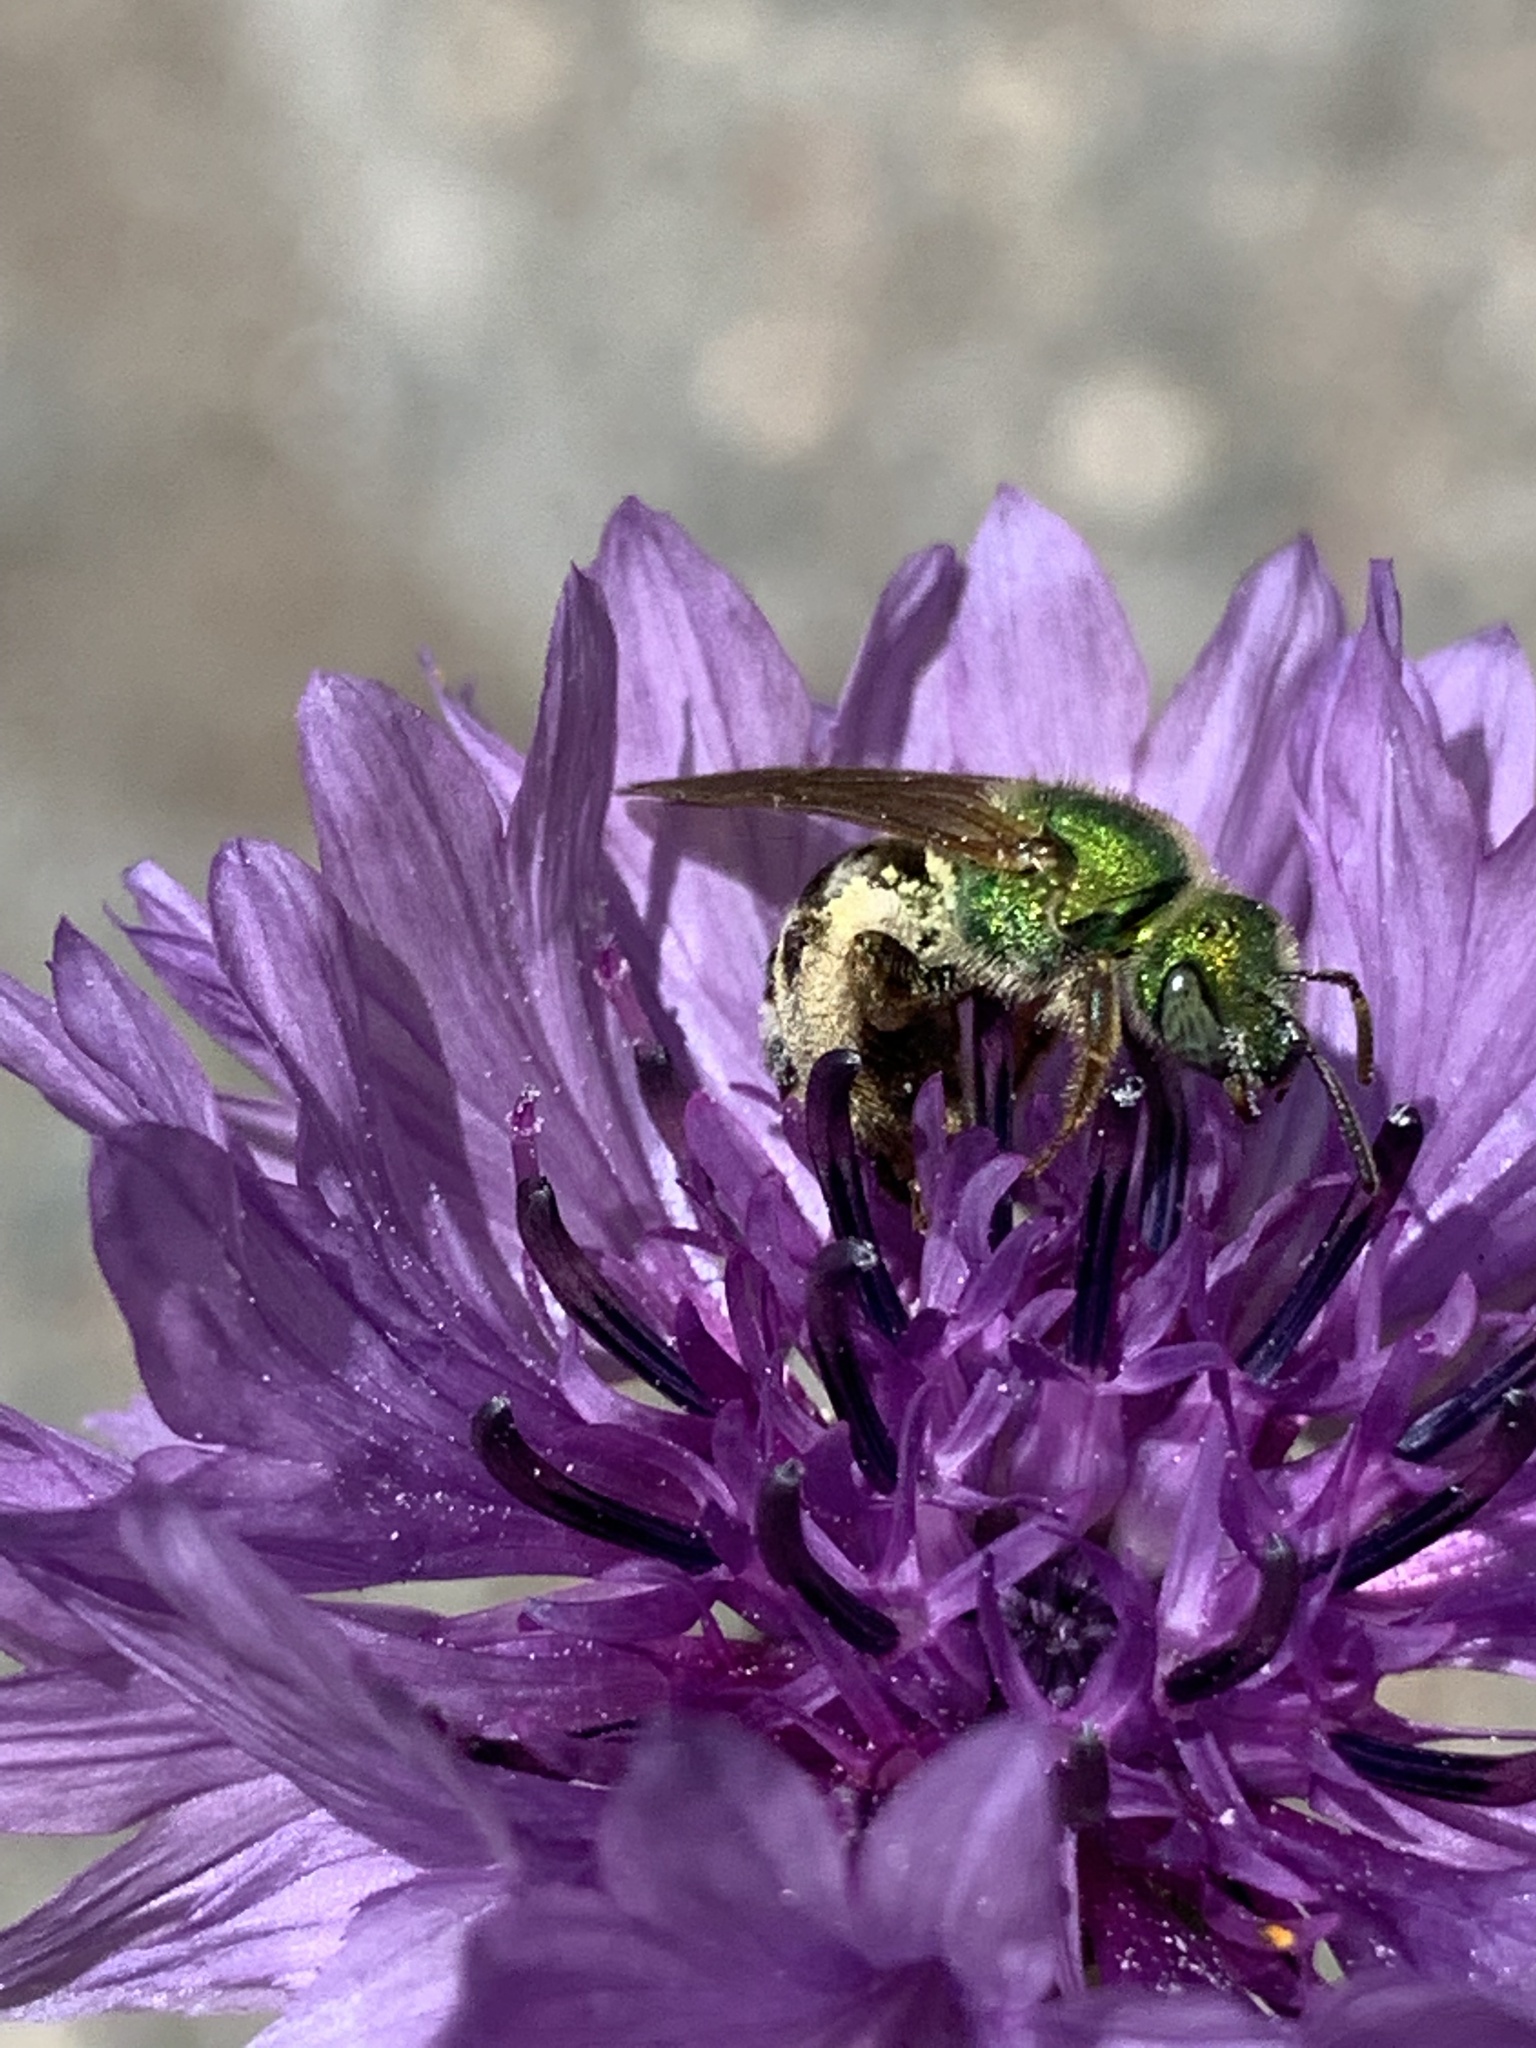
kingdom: Animalia
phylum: Arthropoda
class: Insecta
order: Hymenoptera
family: Halictidae
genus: Agapostemon
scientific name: Agapostemon virescens
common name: Bicolored striped sweat bee
